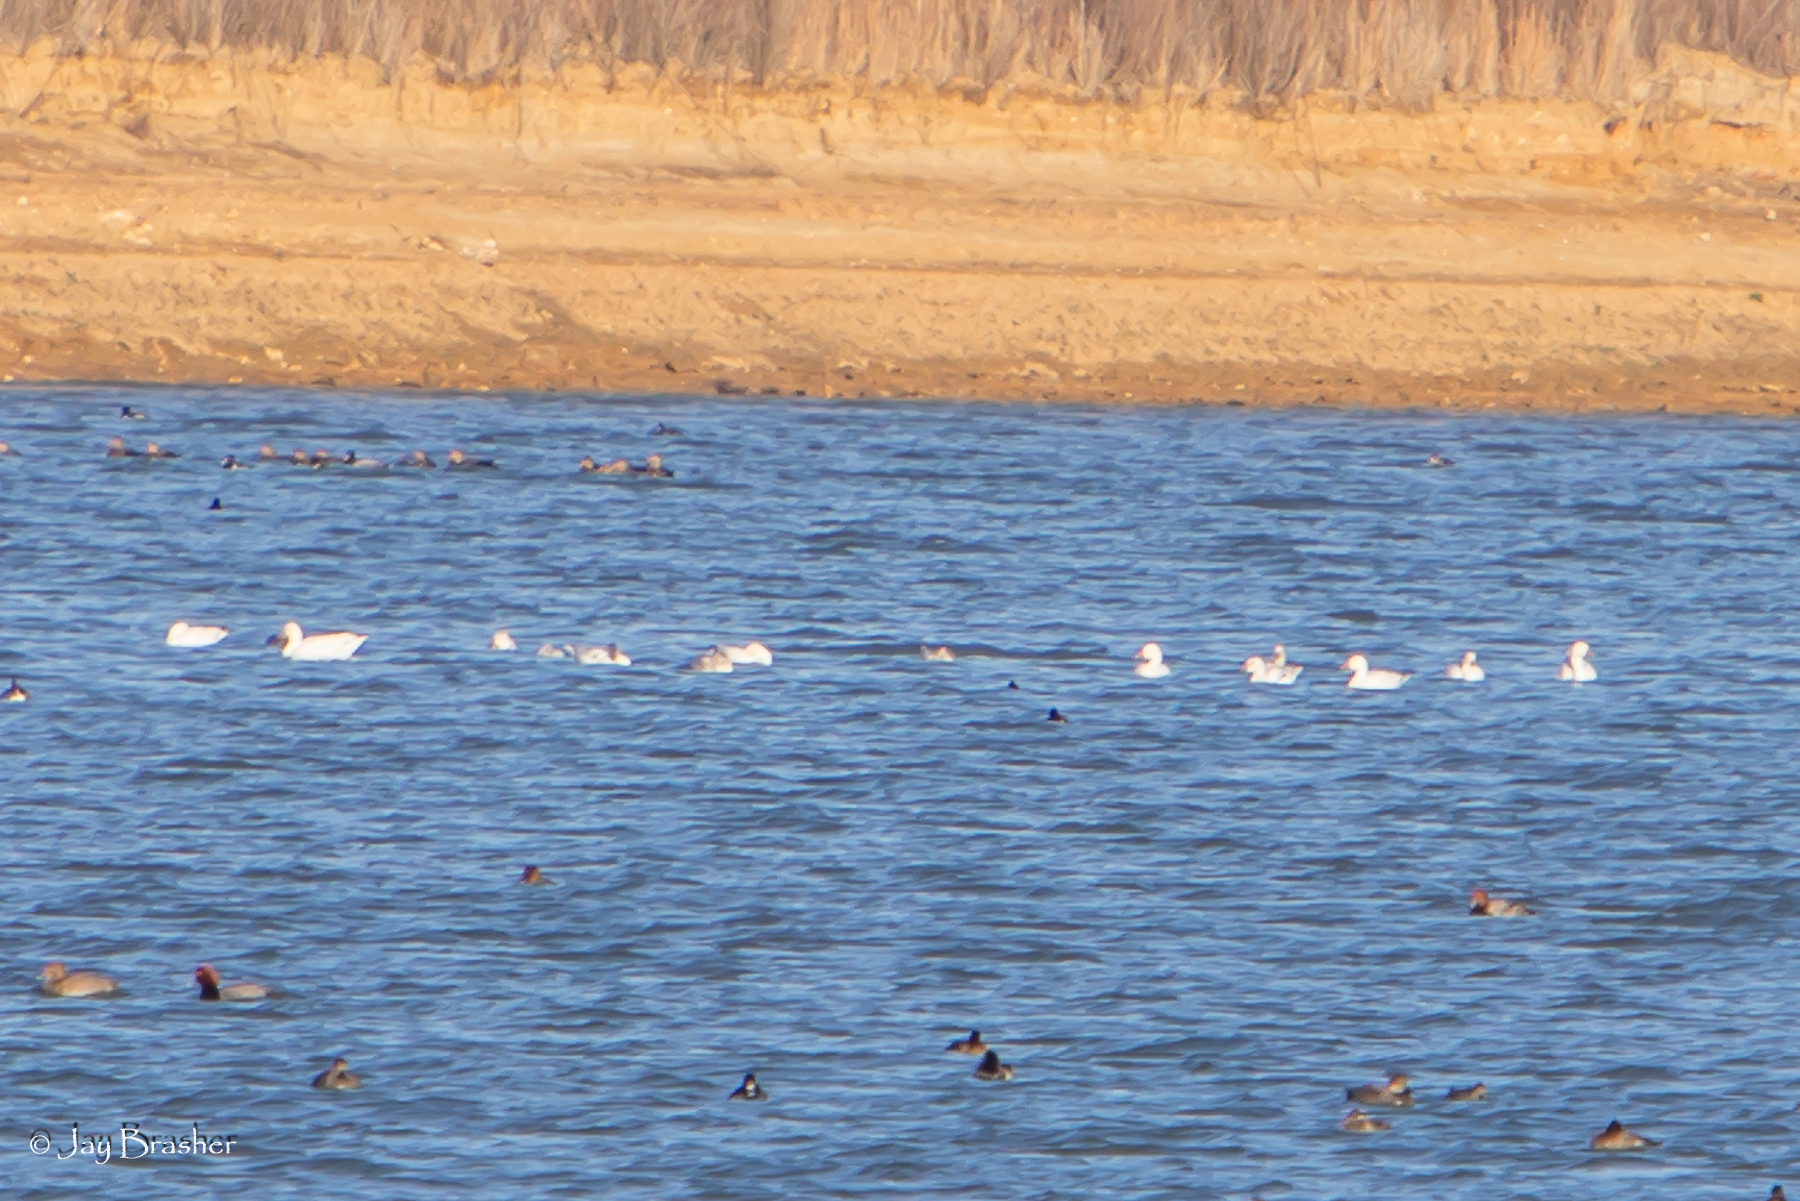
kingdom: Animalia
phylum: Chordata
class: Aves
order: Anseriformes
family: Anatidae
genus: Anser
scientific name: Anser caerulescens
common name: Snow goose
